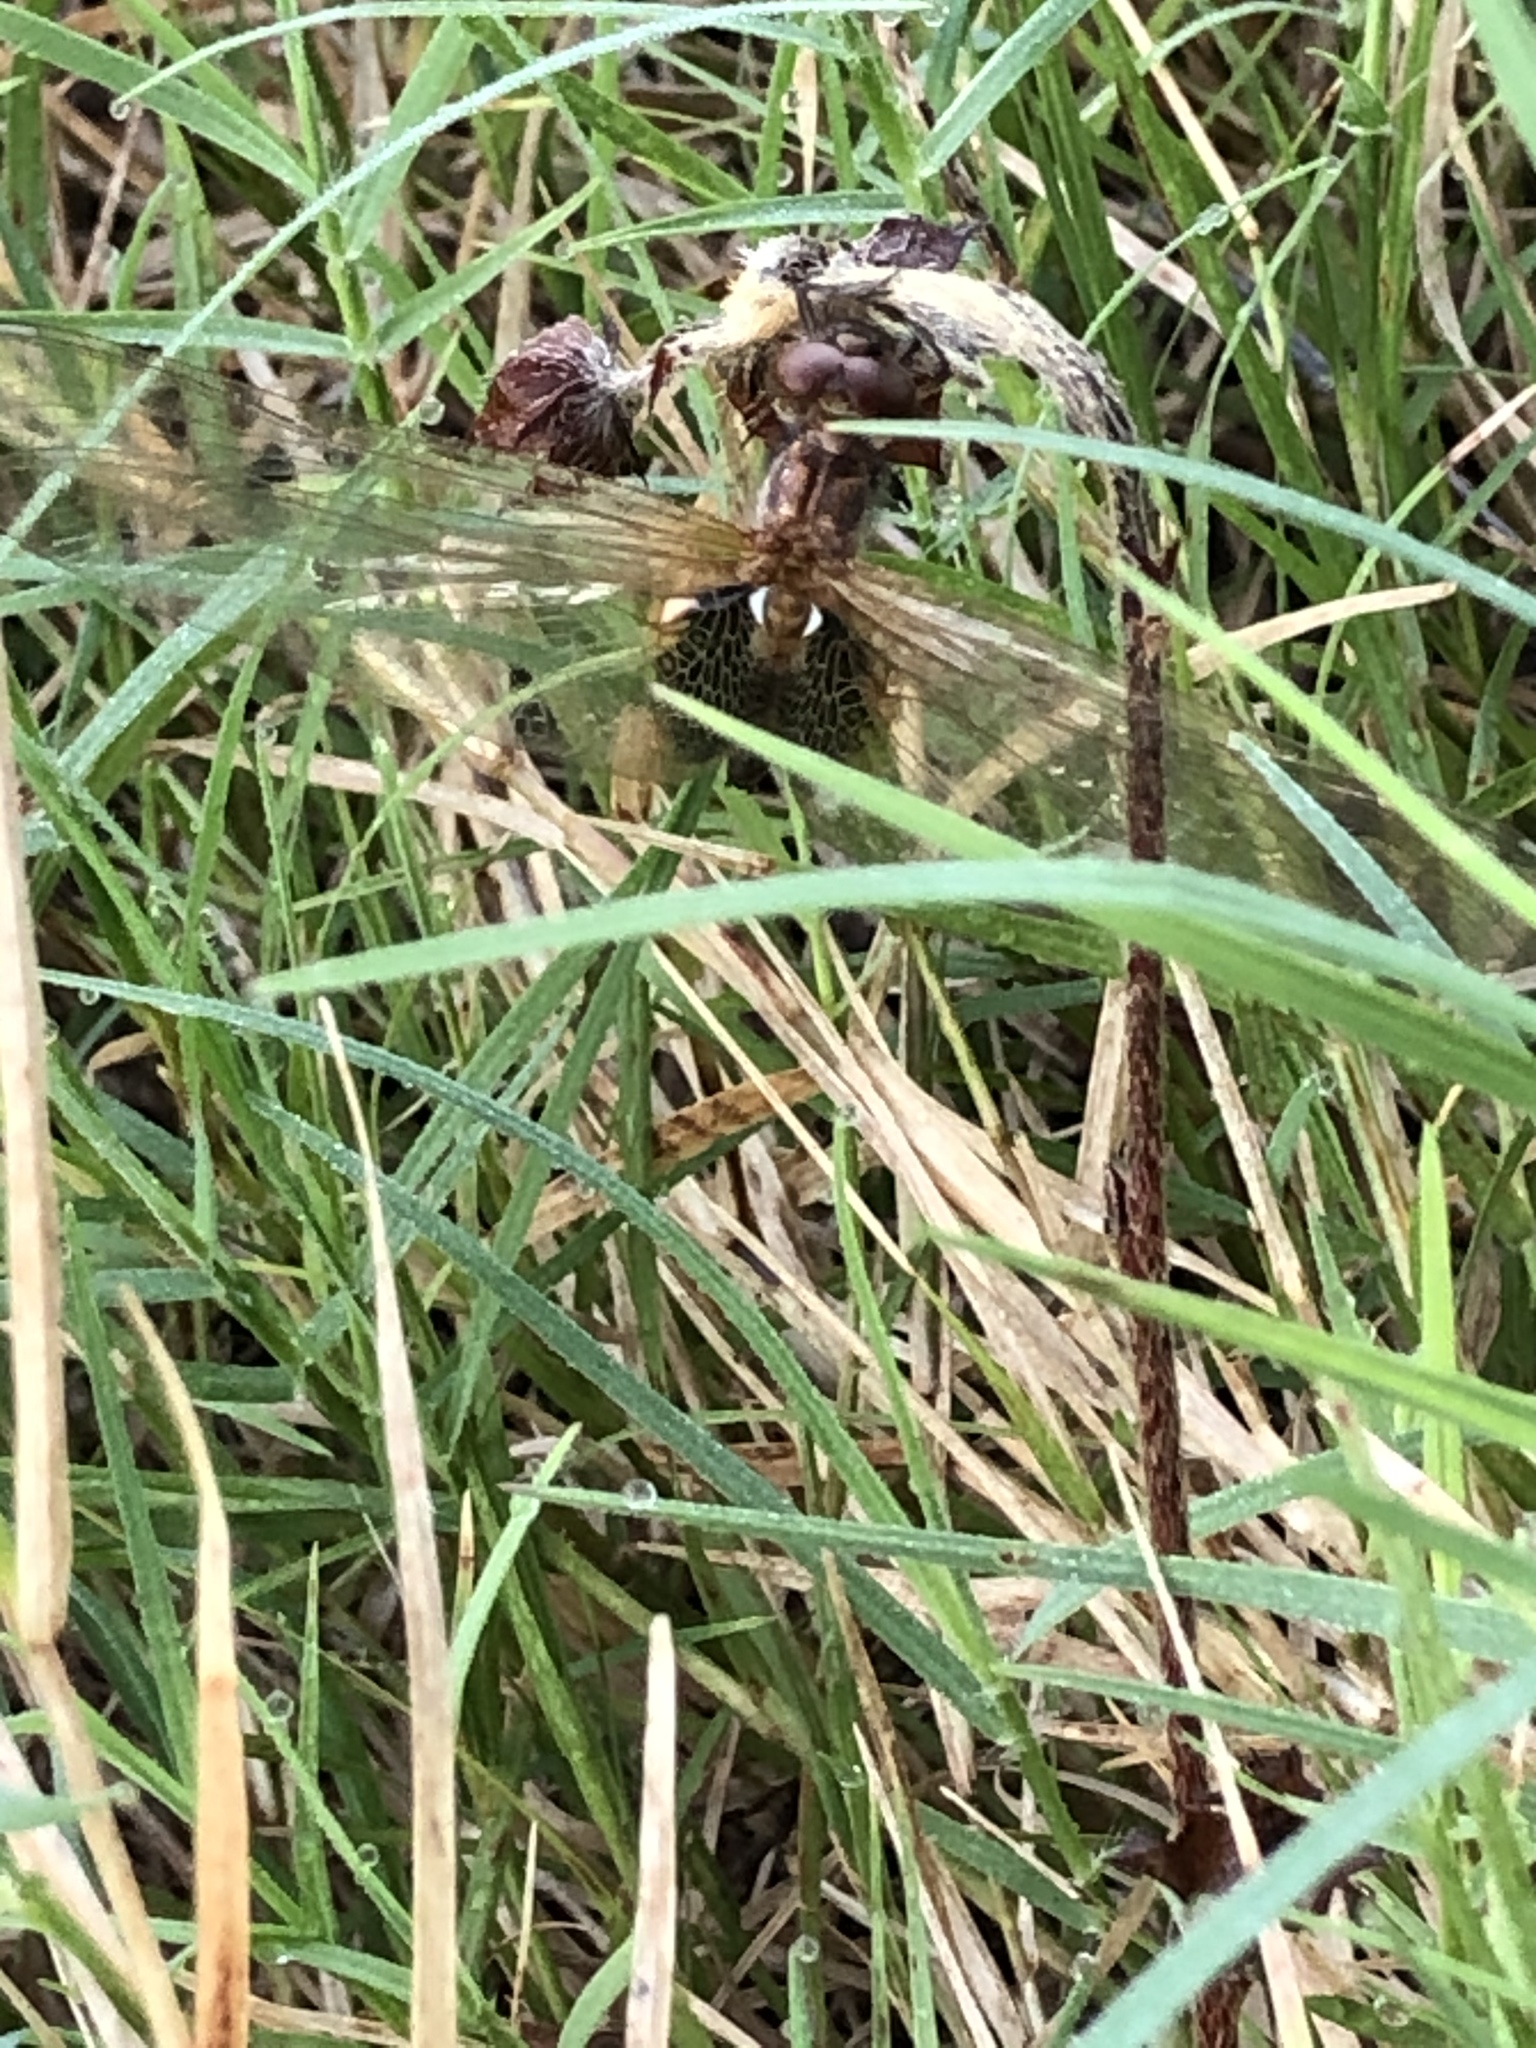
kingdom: Animalia
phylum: Arthropoda
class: Insecta
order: Odonata
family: Libellulidae
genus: Miathyria
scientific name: Miathyria marcella
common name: Hyacinth glider
